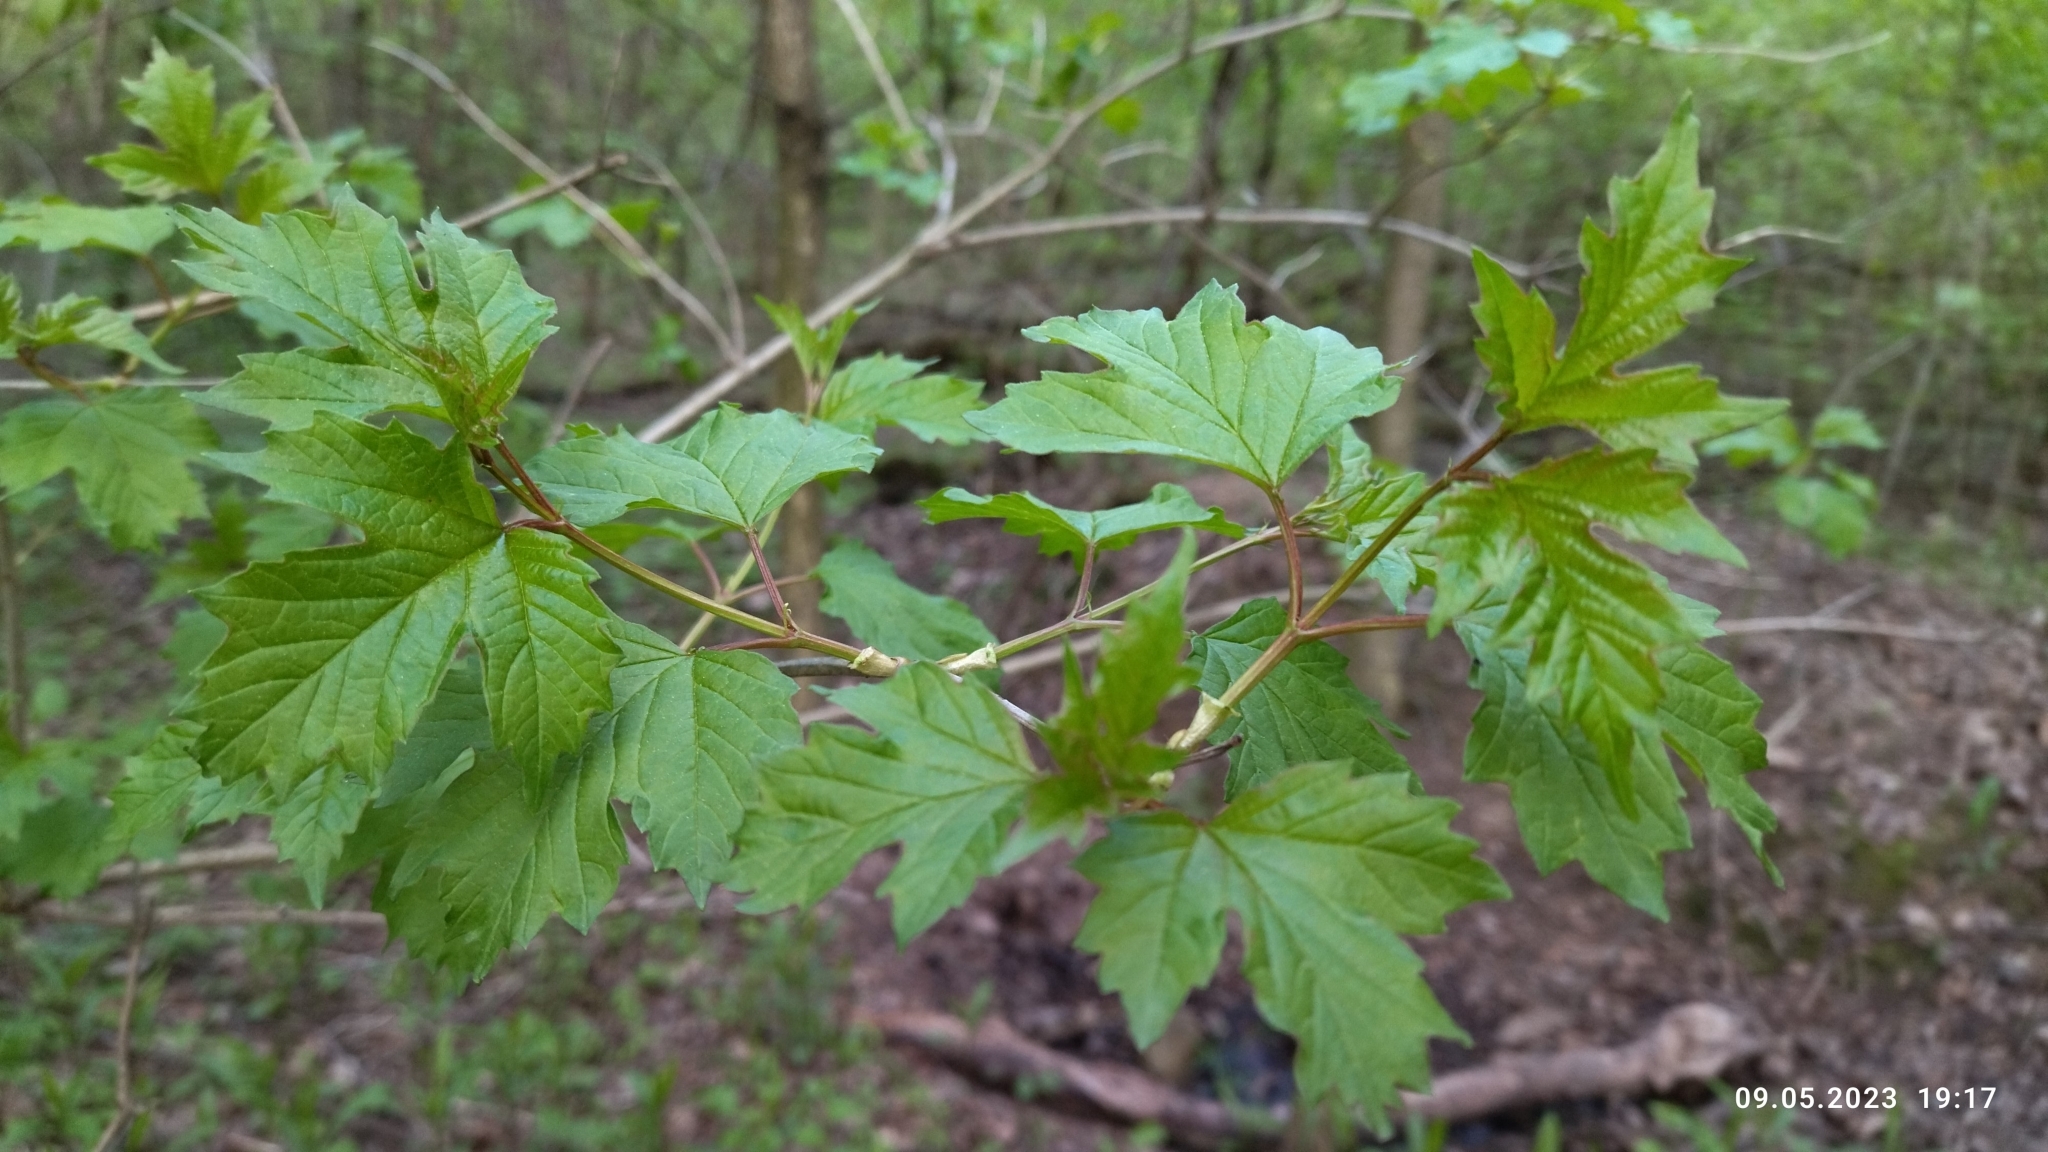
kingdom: Plantae
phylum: Tracheophyta
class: Magnoliopsida
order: Dipsacales
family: Viburnaceae
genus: Viburnum
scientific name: Viburnum opulus
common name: Guelder-rose
